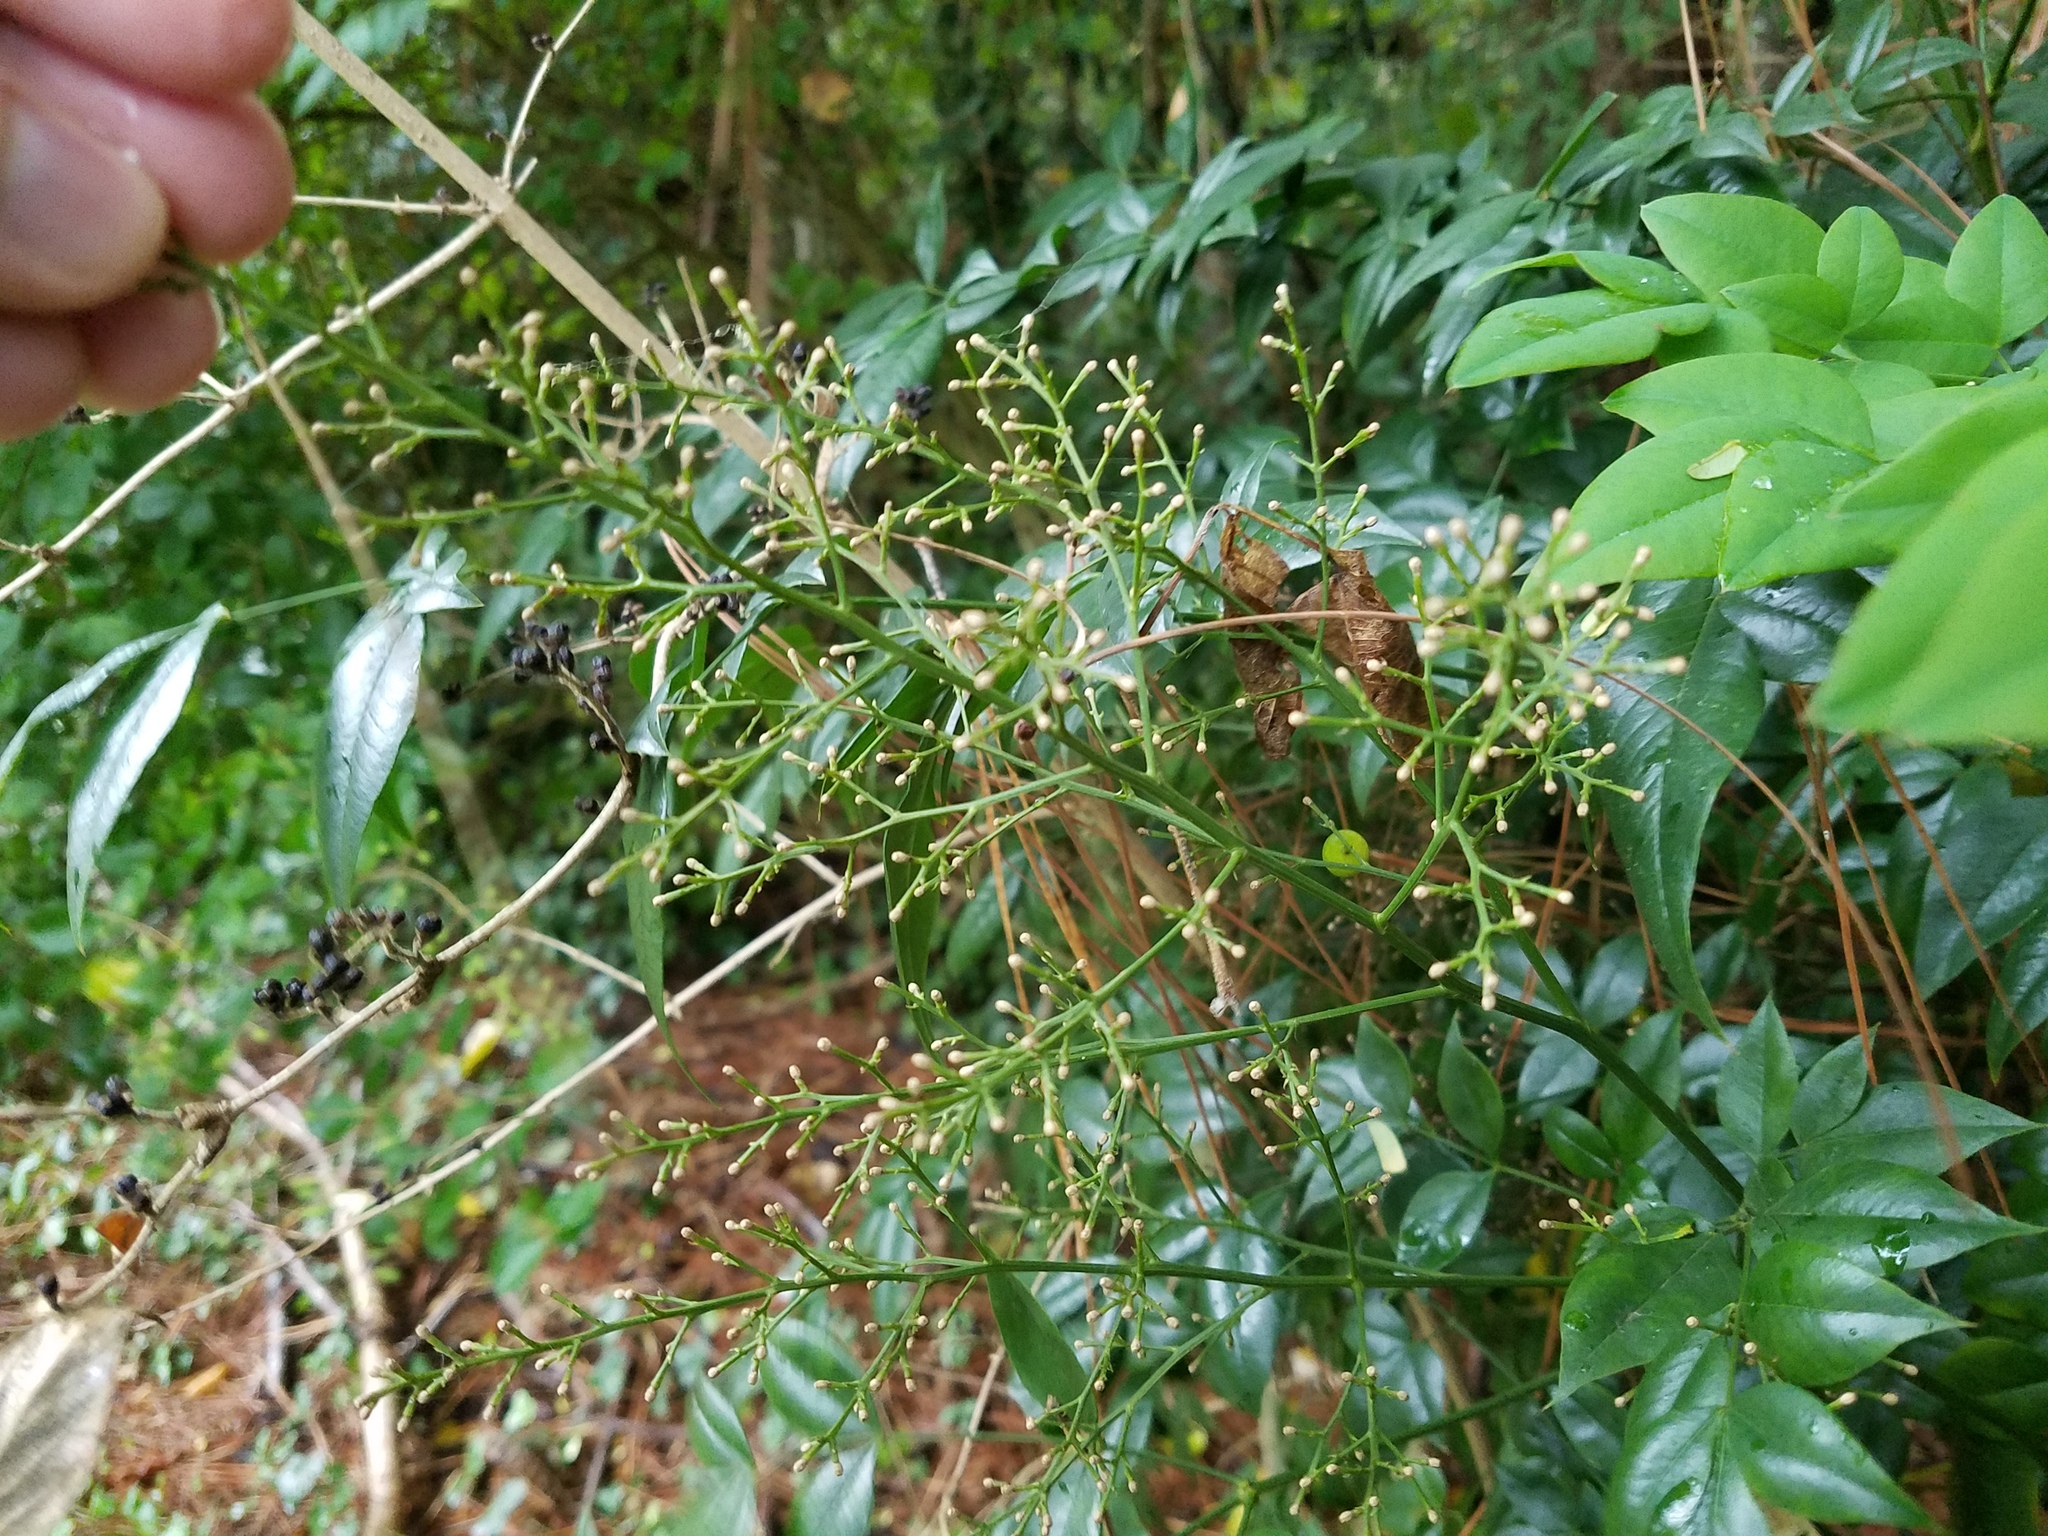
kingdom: Plantae
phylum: Tracheophyta
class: Magnoliopsida
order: Ranunculales
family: Berberidaceae
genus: Nandina
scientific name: Nandina domestica
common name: Sacred bamboo
